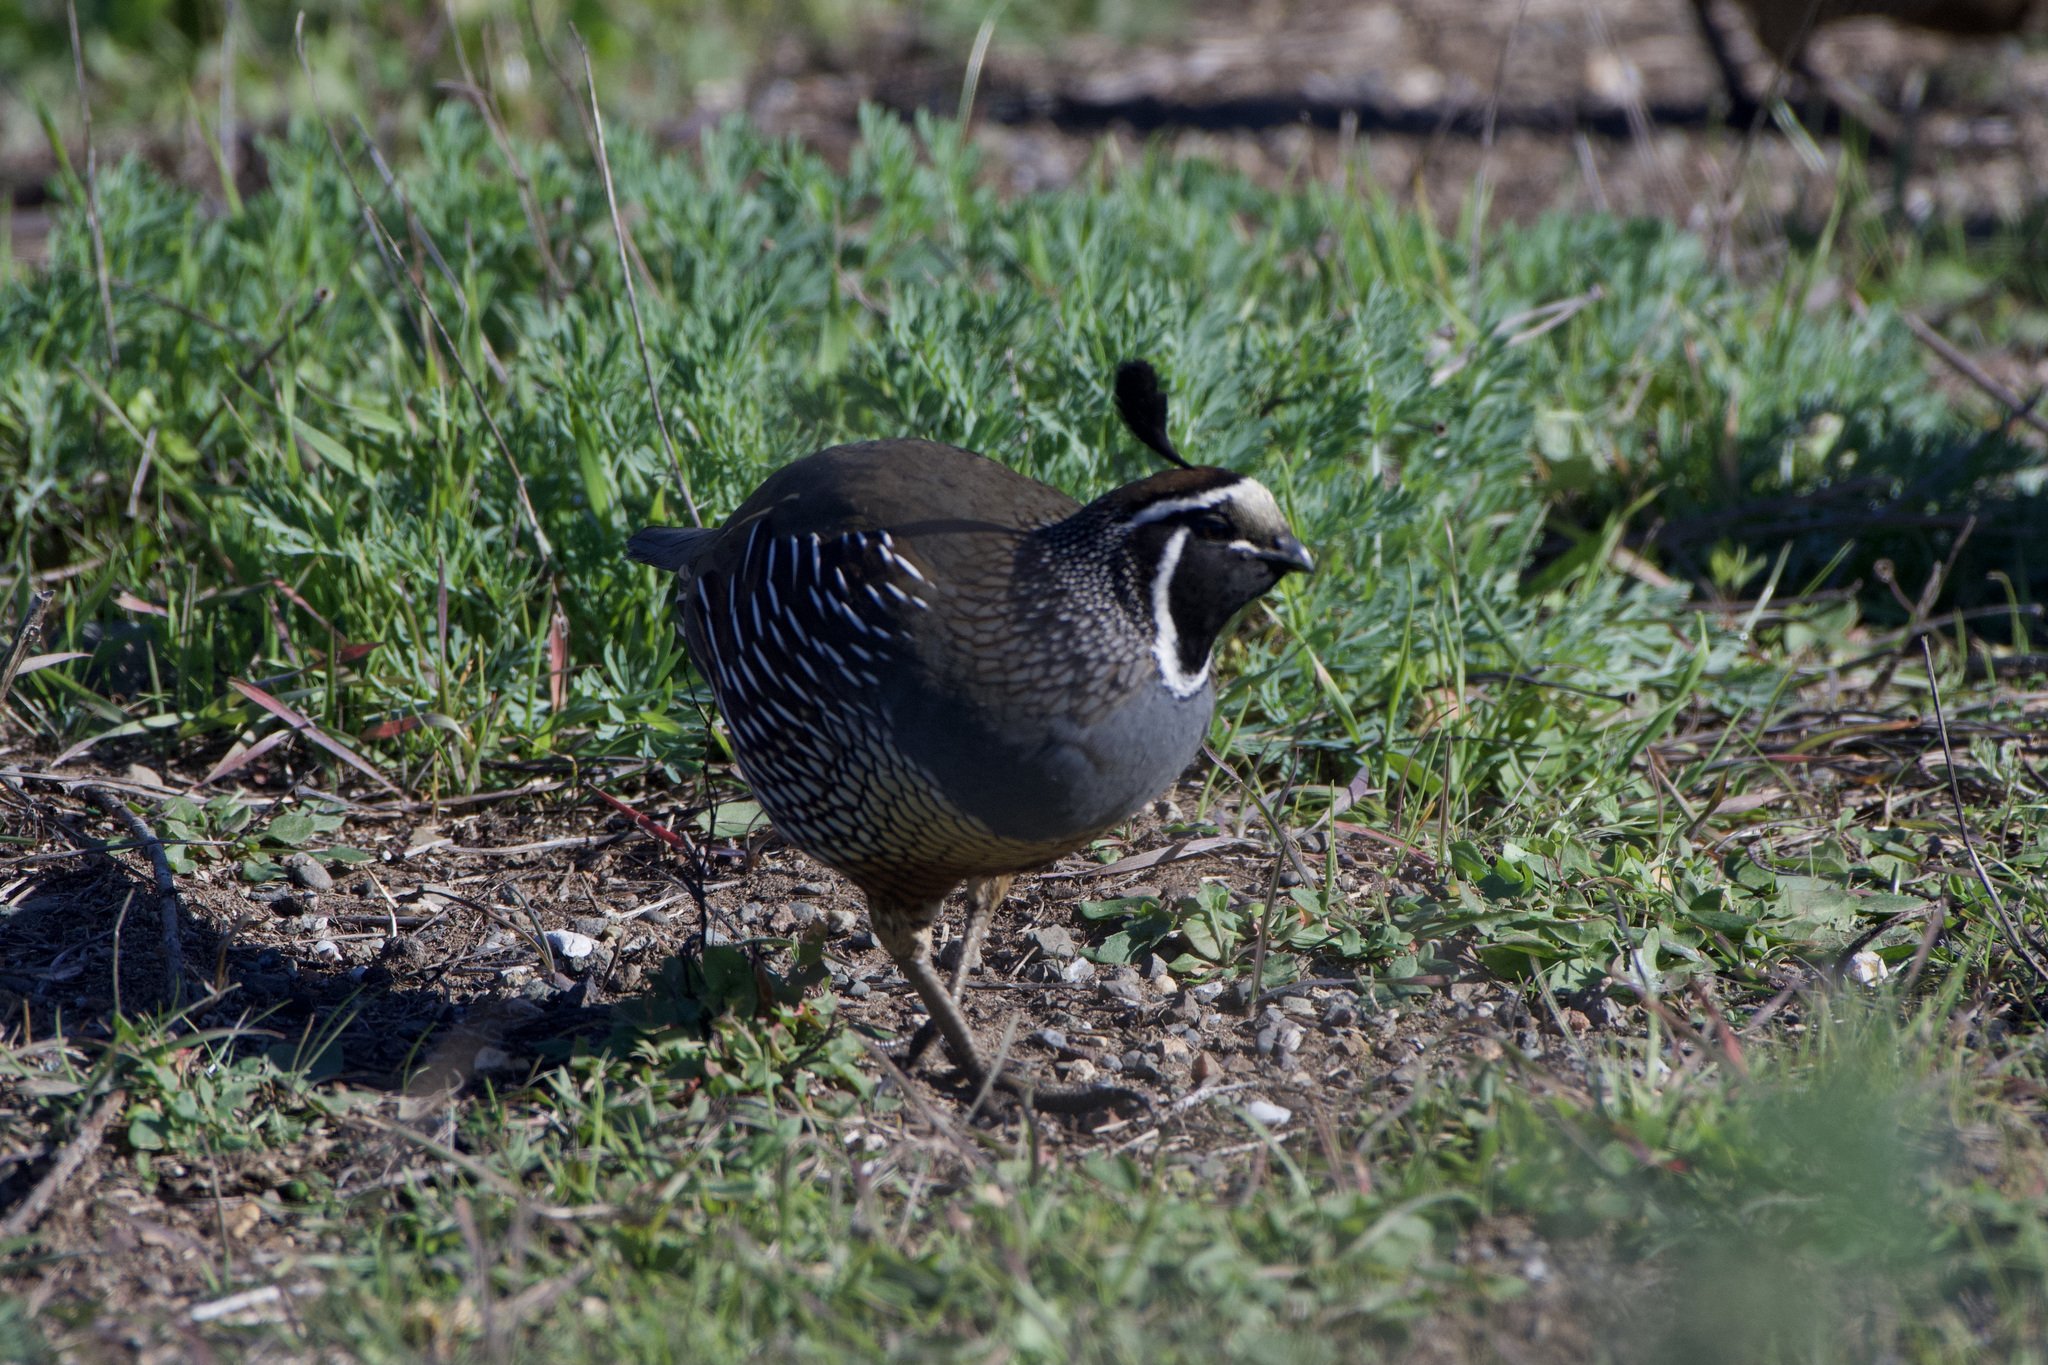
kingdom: Animalia
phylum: Chordata
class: Aves
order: Galliformes
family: Odontophoridae
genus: Callipepla
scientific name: Callipepla californica
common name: California quail
